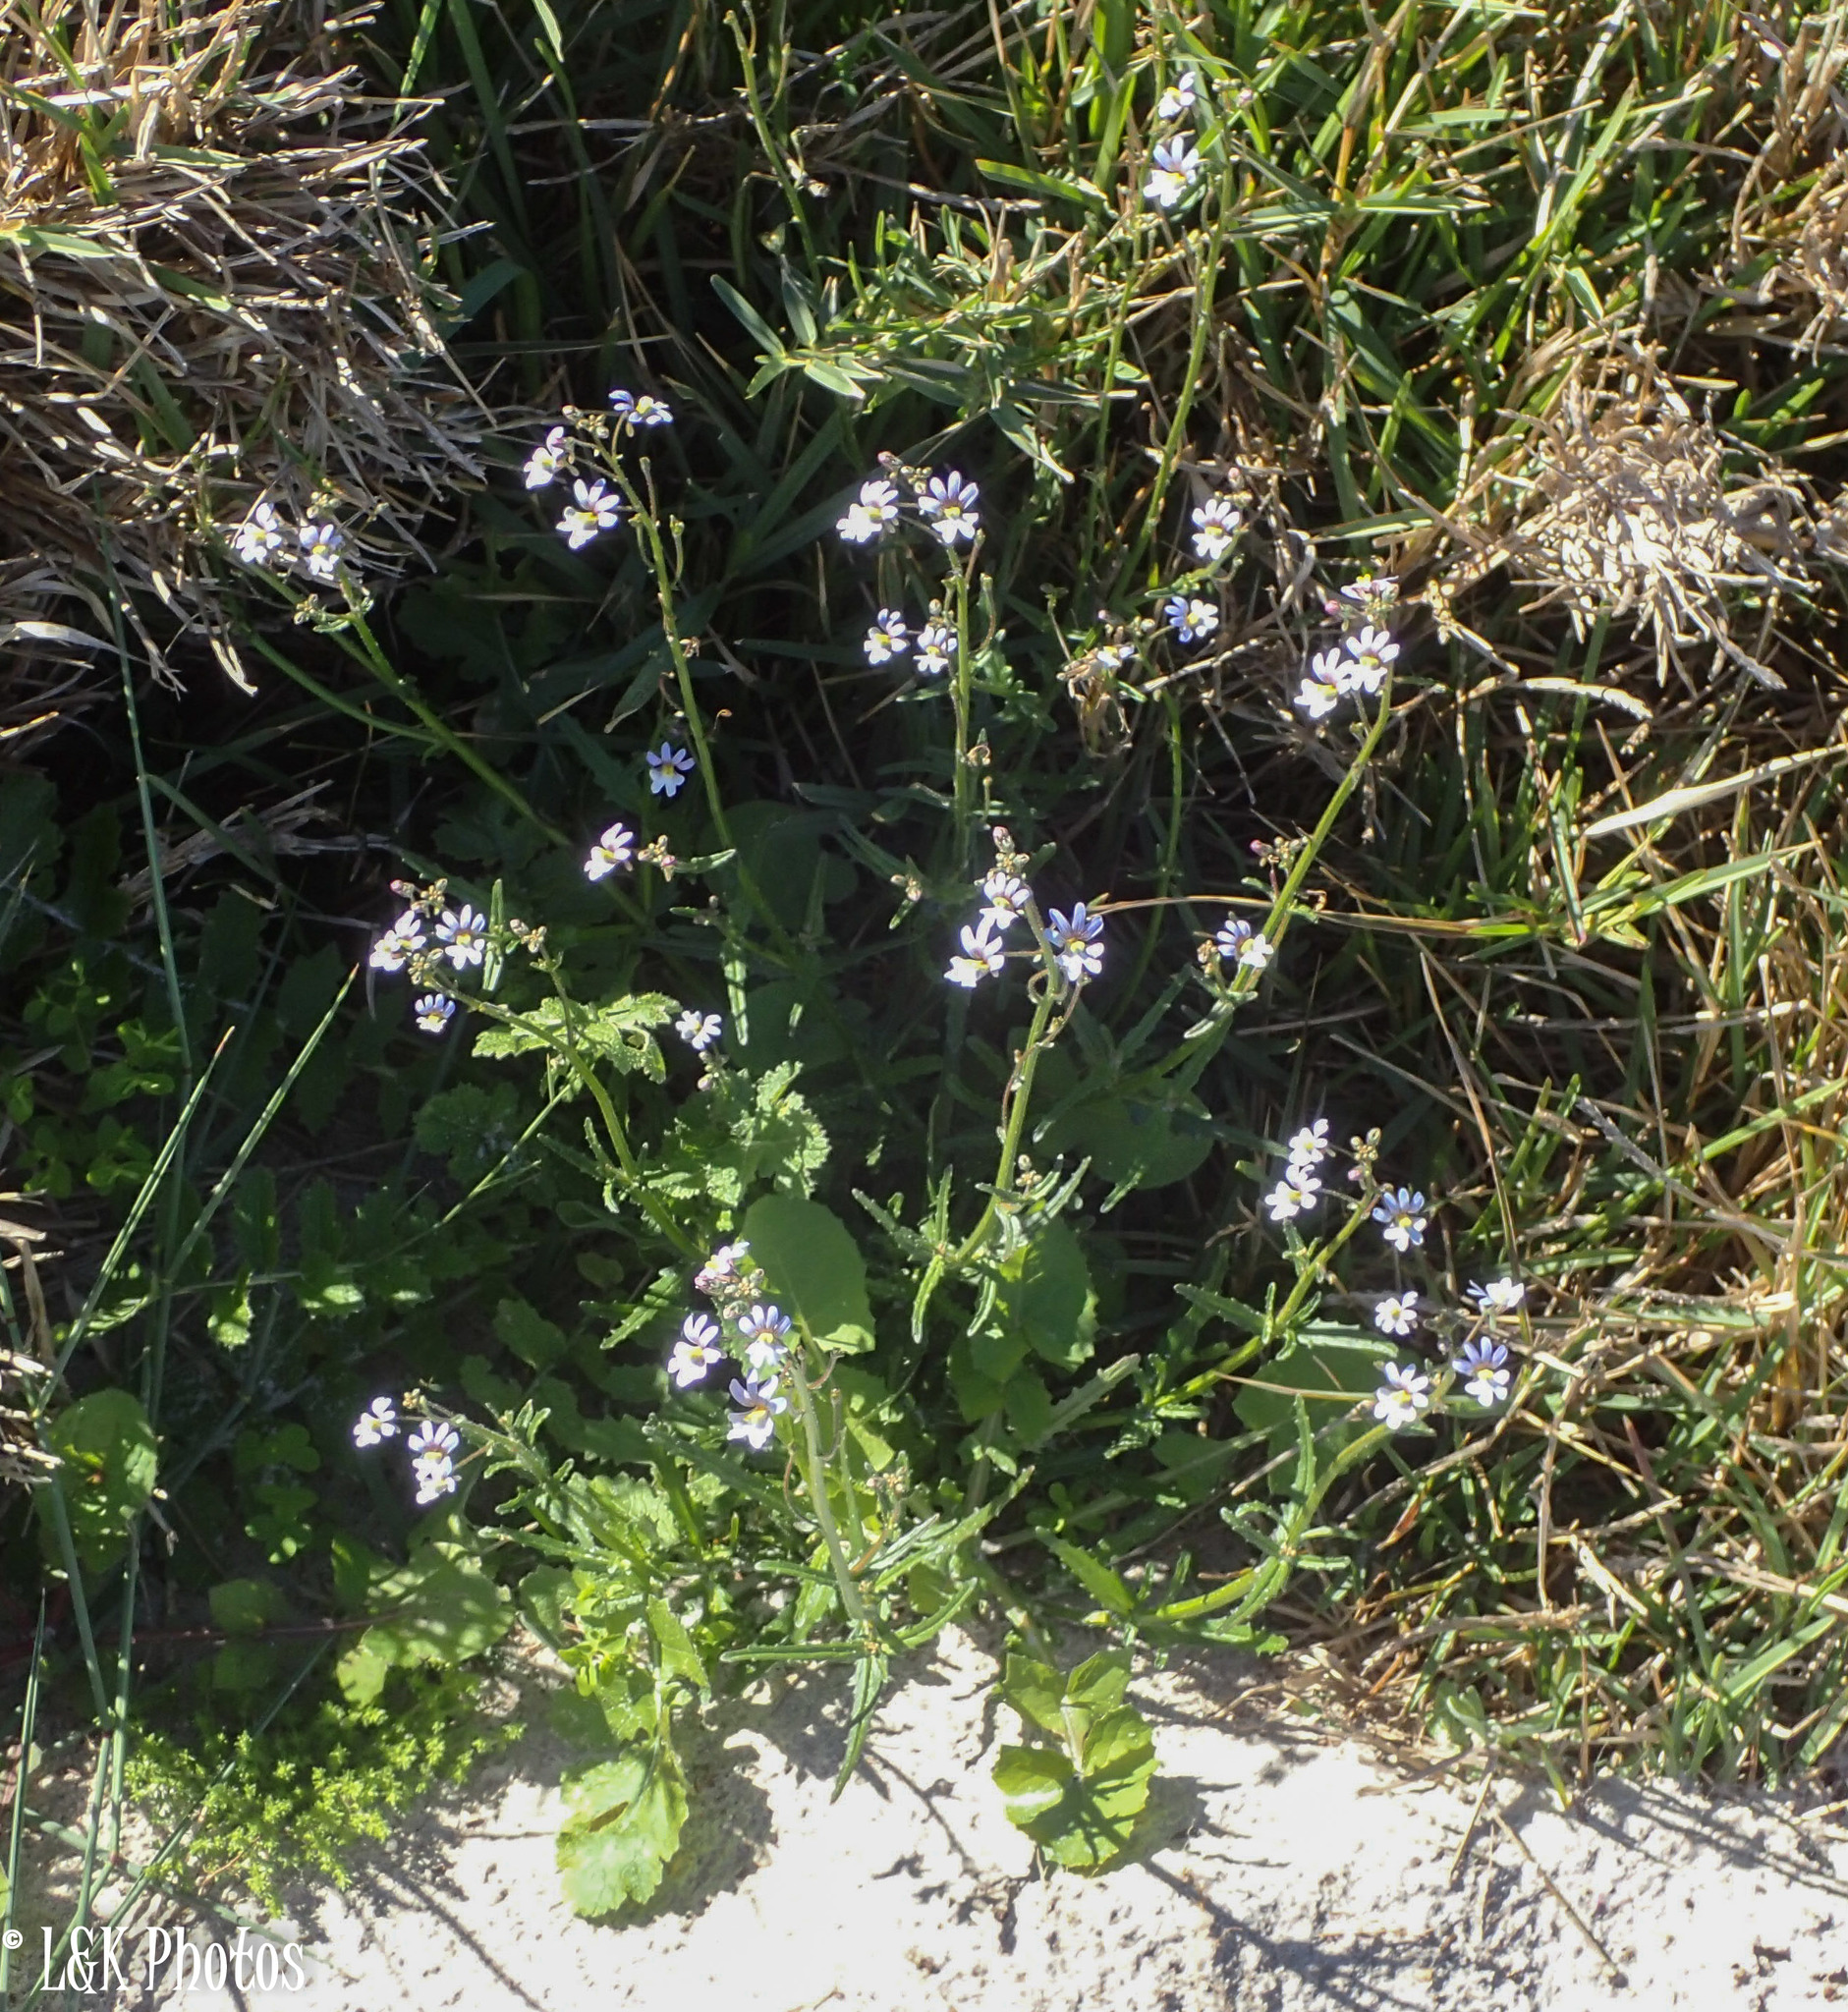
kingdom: Plantae
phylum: Tracheophyta
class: Magnoliopsida
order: Lamiales
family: Scrophulariaceae
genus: Nemesia
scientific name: Nemesia affinis
